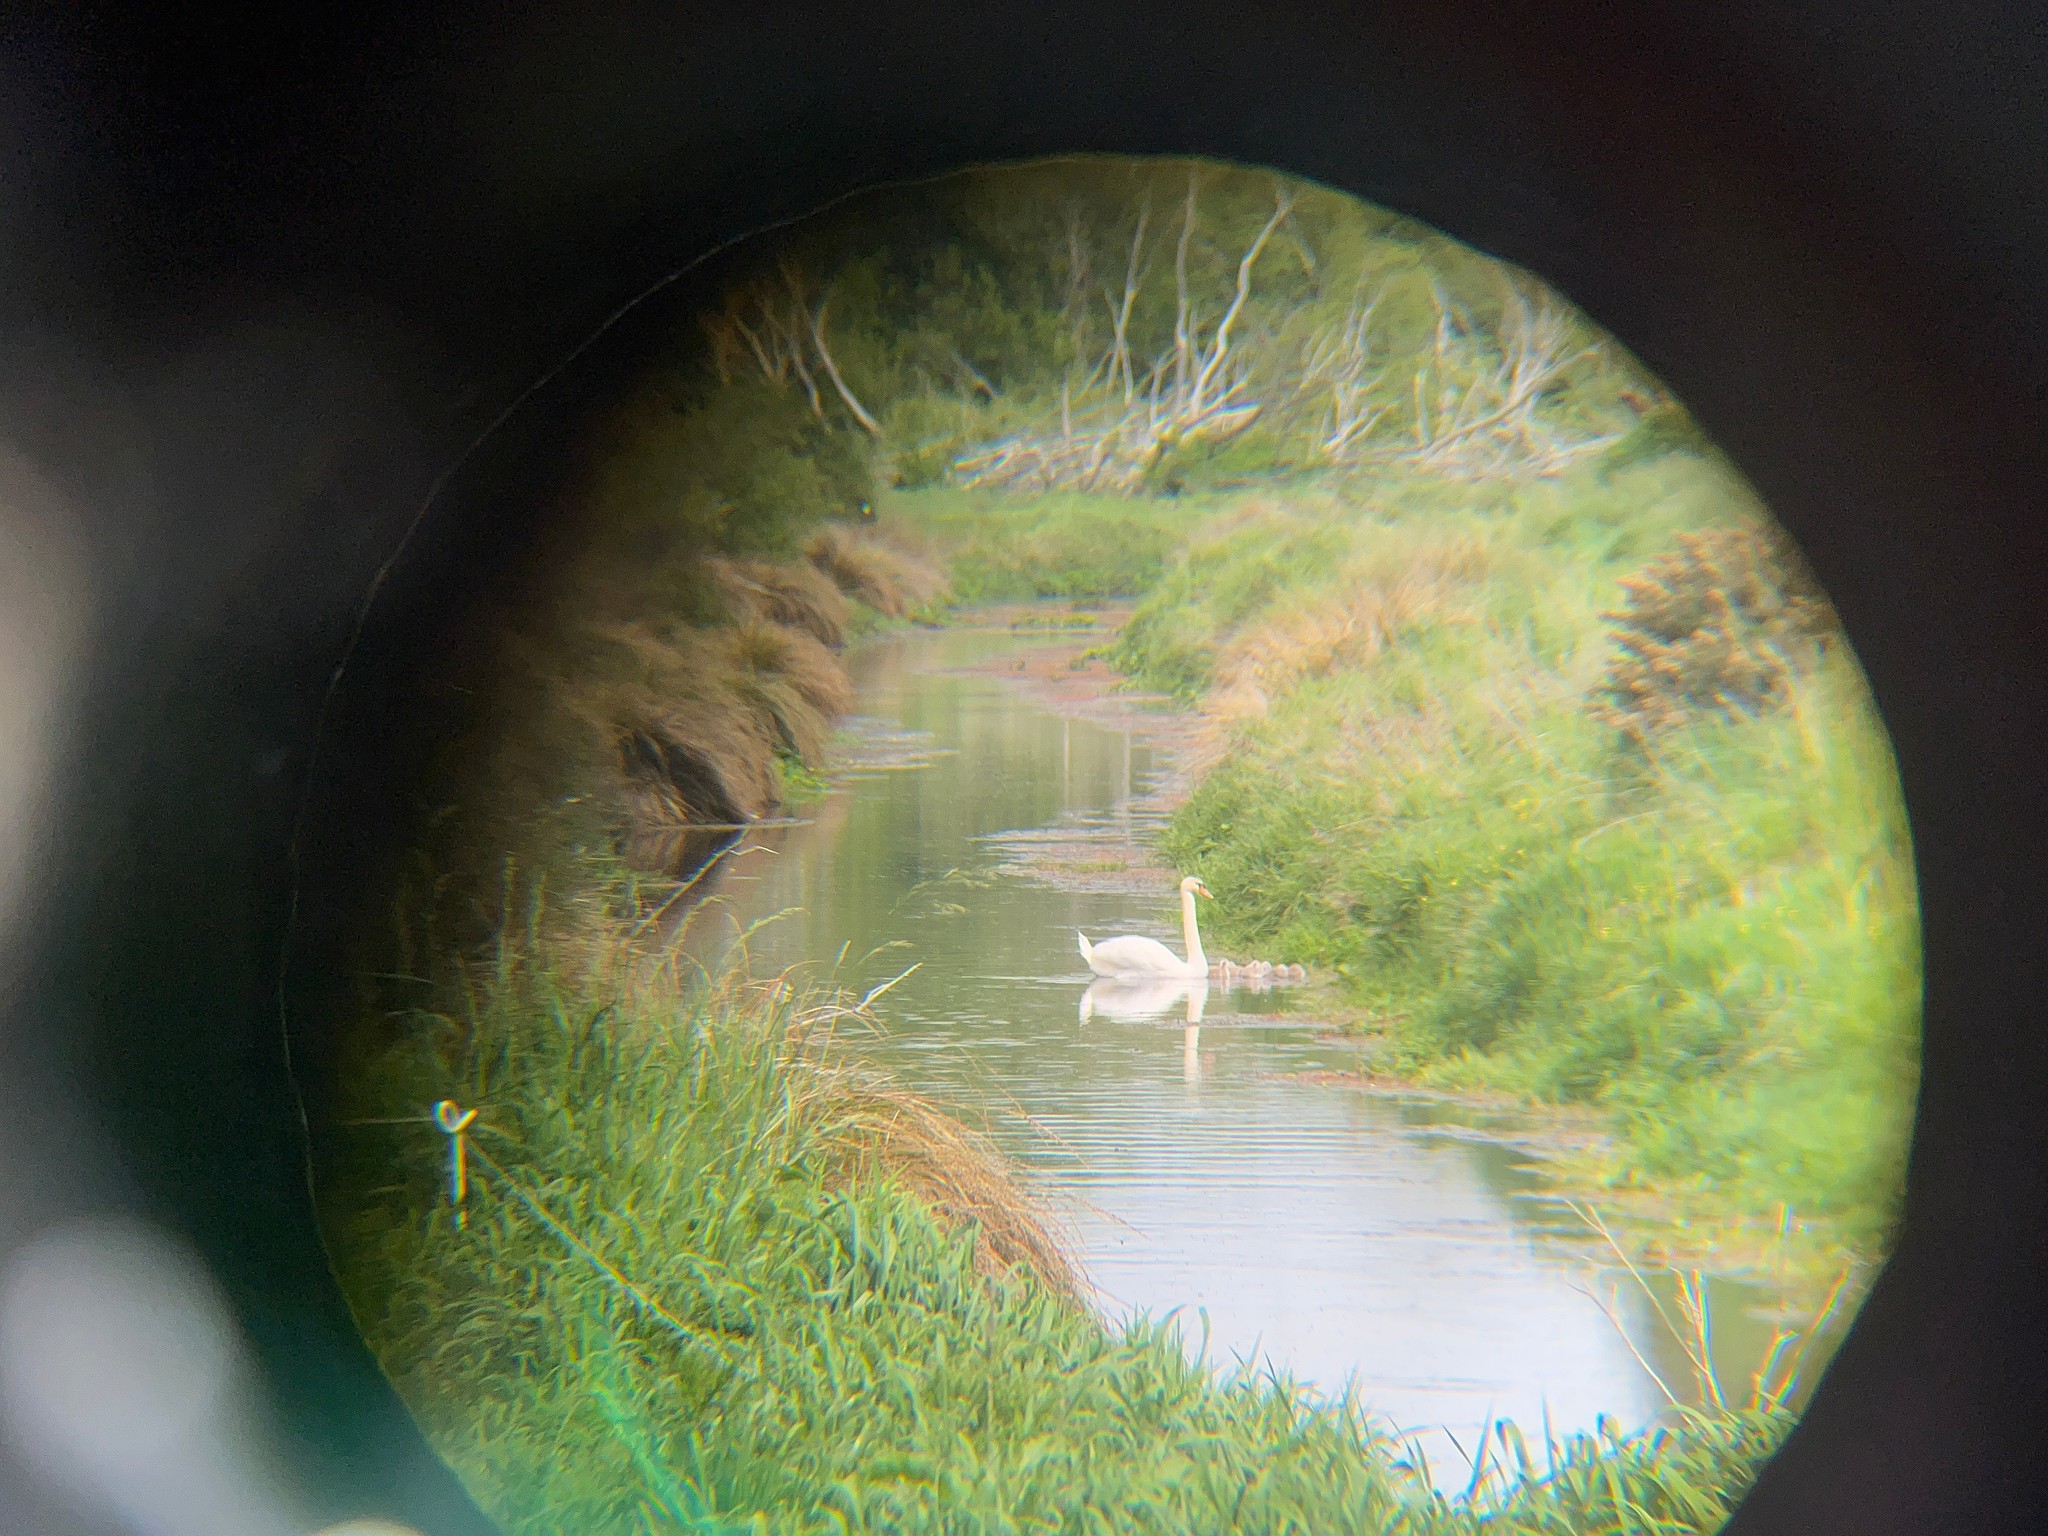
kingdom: Animalia
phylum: Chordata
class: Aves
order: Anseriformes
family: Anatidae
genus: Cygnus
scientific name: Cygnus olor
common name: Mute swan
